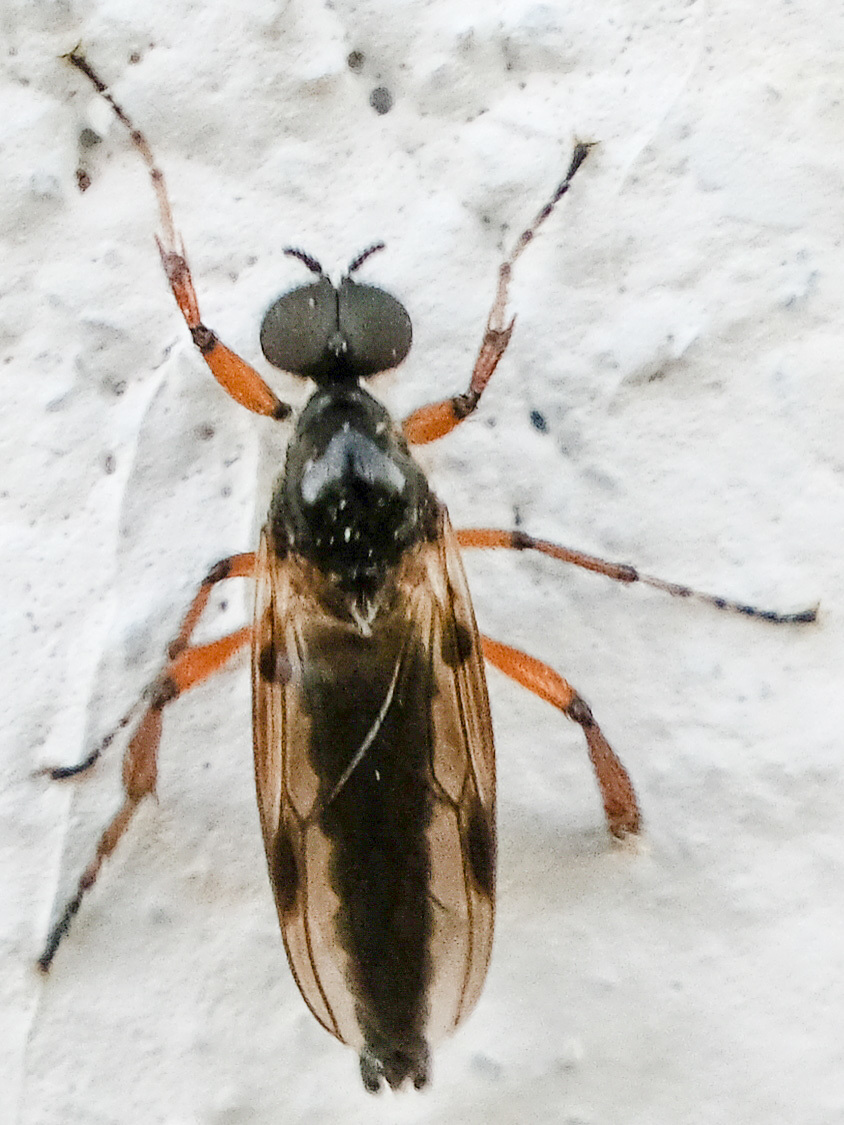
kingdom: Animalia
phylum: Arthropoda
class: Insecta
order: Diptera
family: Bibionidae
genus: Bibio
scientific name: Bibio articulatus
